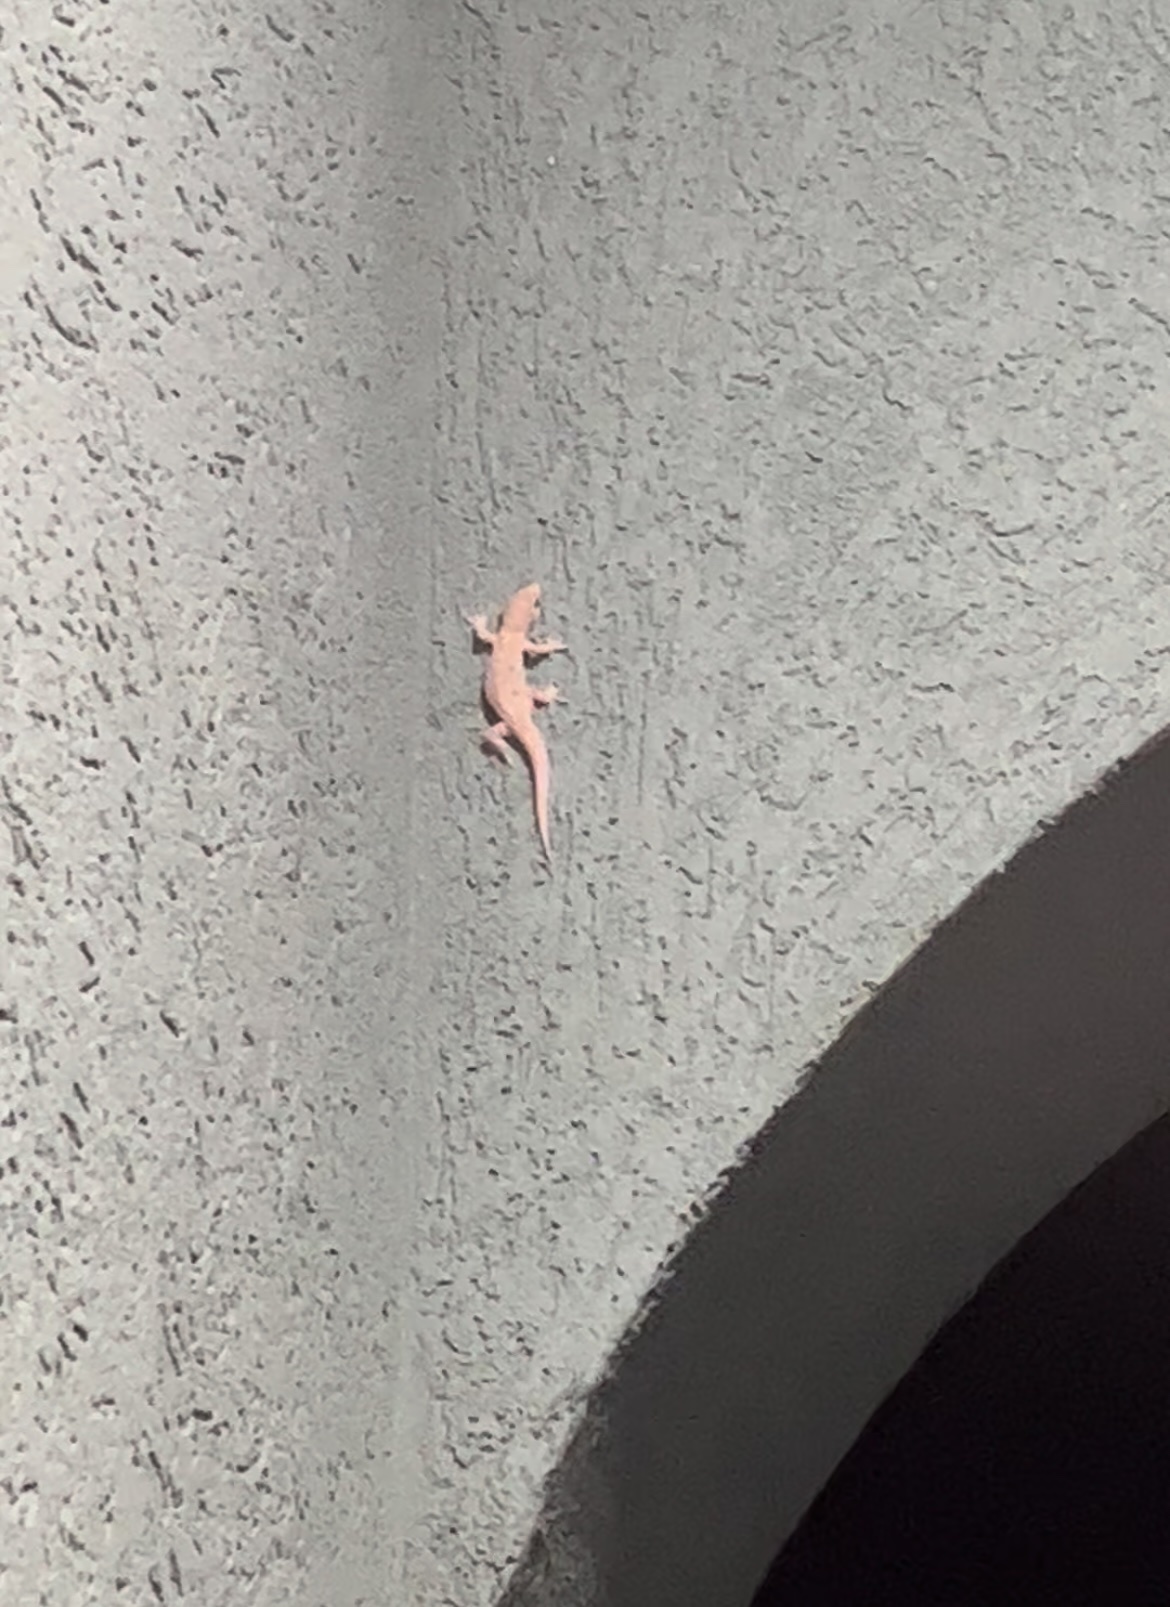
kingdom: Animalia
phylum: Chordata
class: Squamata
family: Gekkonidae
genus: Hemidactylus
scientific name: Hemidactylus turcicus
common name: Turkish gecko
